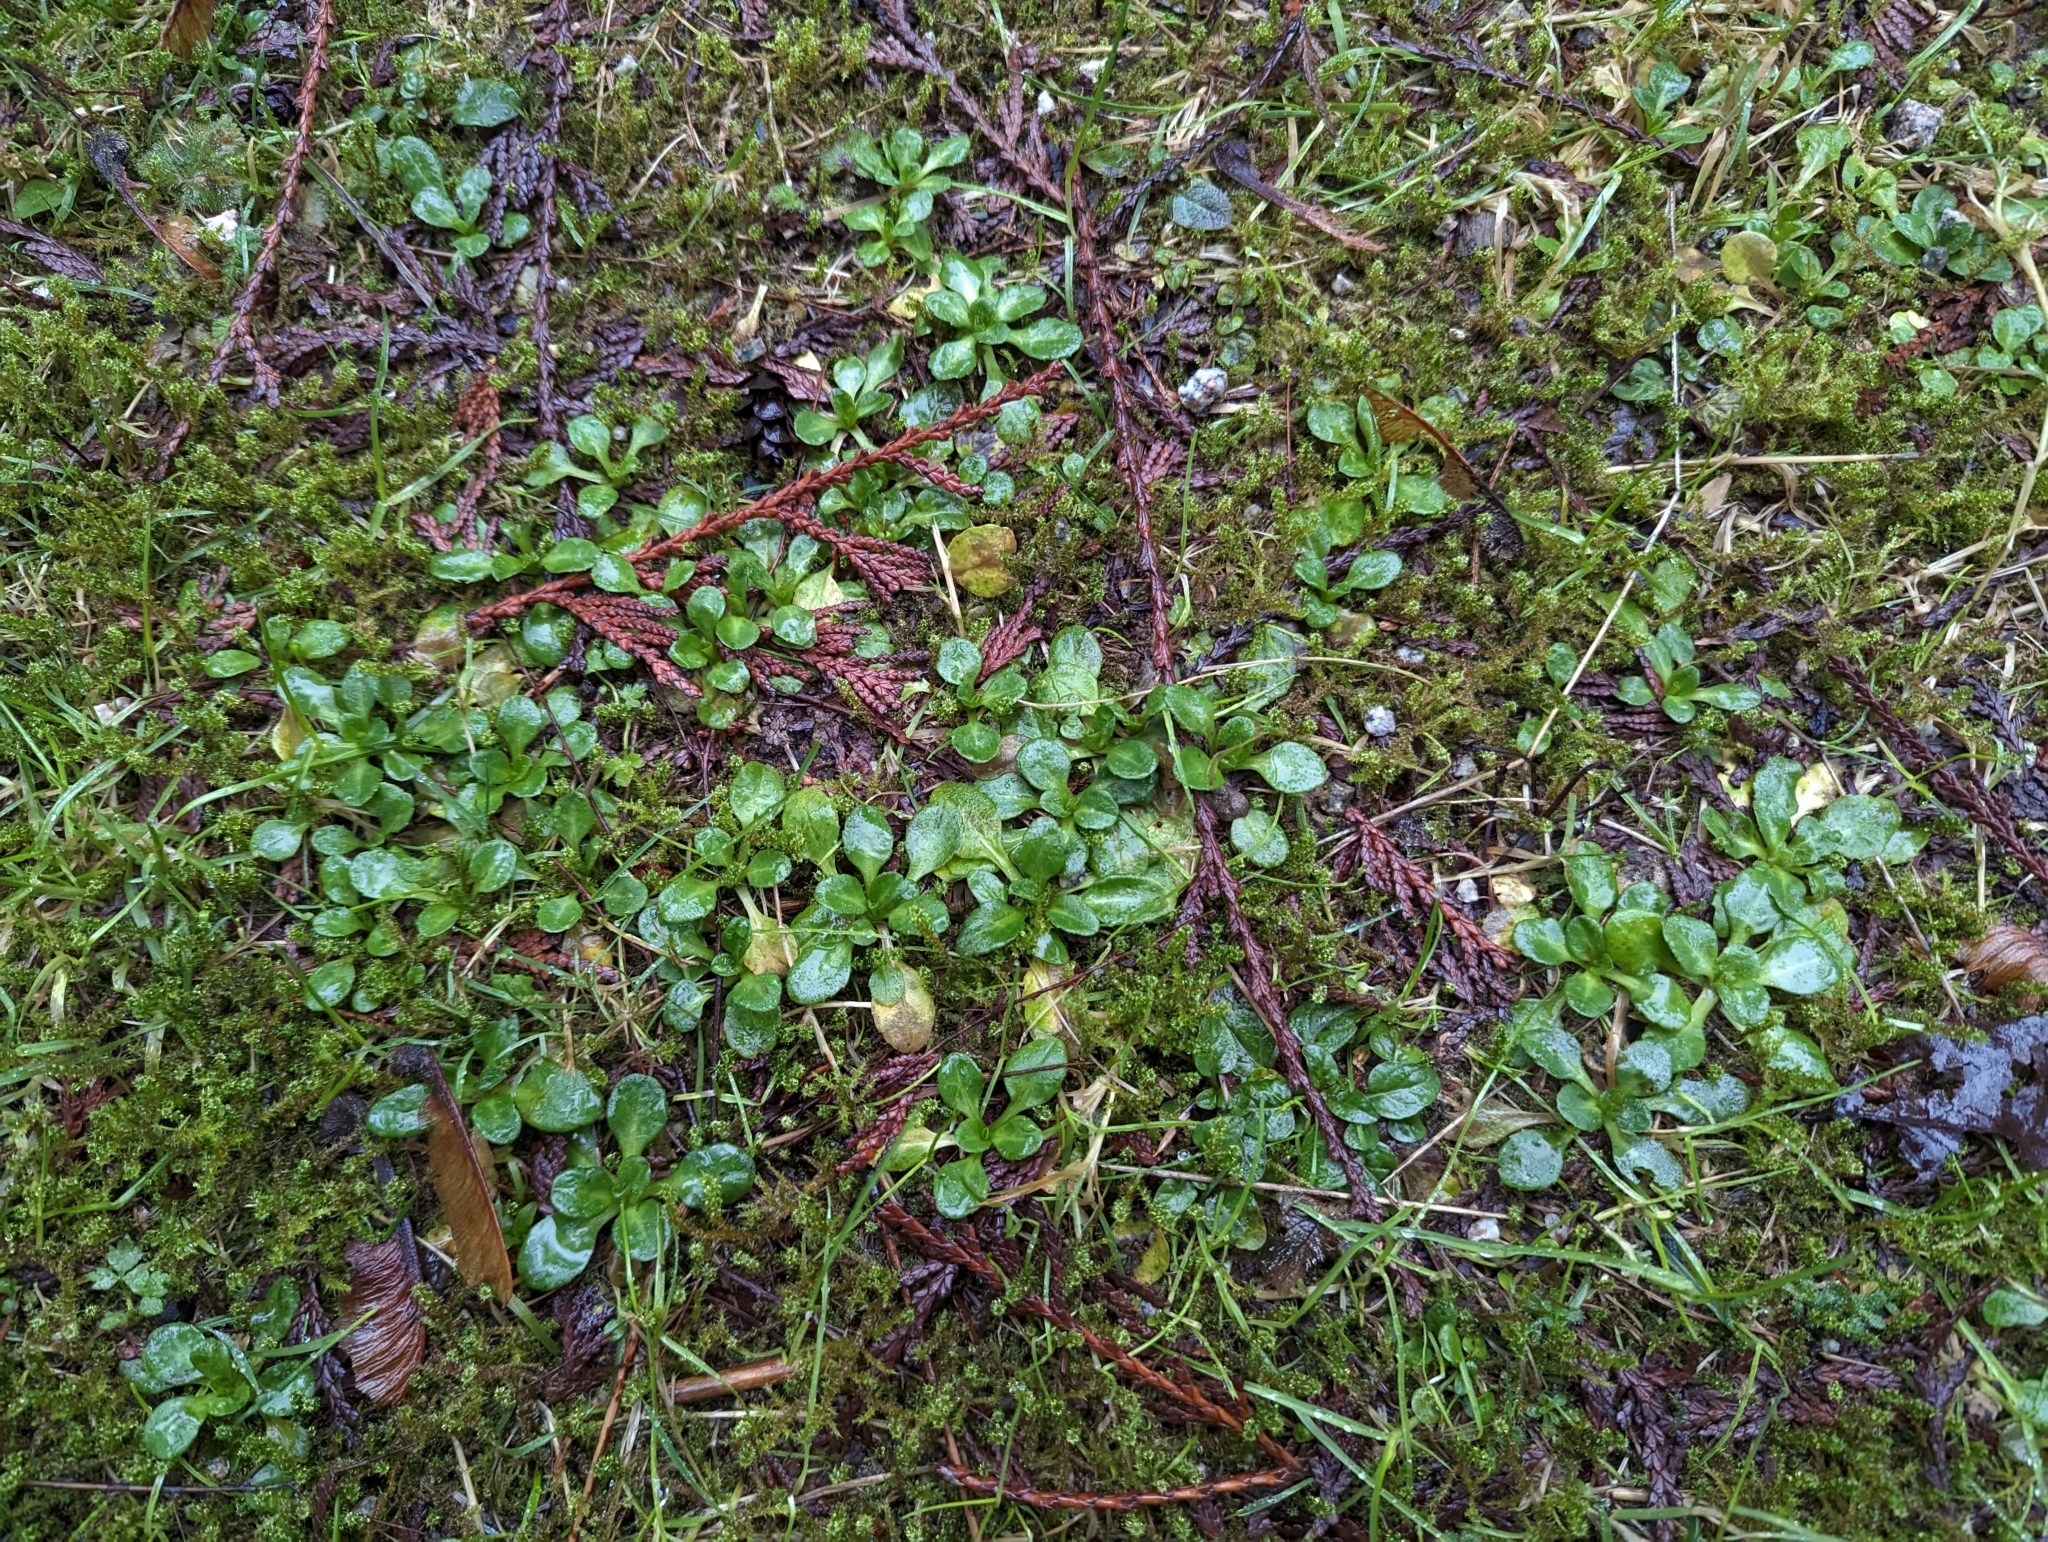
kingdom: Plantae
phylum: Tracheophyta
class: Magnoliopsida
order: Asterales
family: Asteraceae
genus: Bellis
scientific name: Bellis perennis
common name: Lawndaisy
